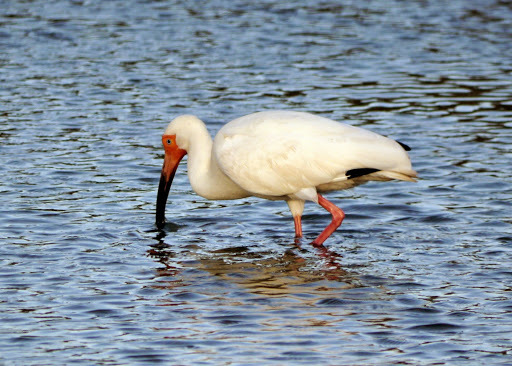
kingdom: Animalia
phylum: Chordata
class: Aves
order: Pelecaniformes
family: Threskiornithidae
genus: Eudocimus
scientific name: Eudocimus albus
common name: White ibis
